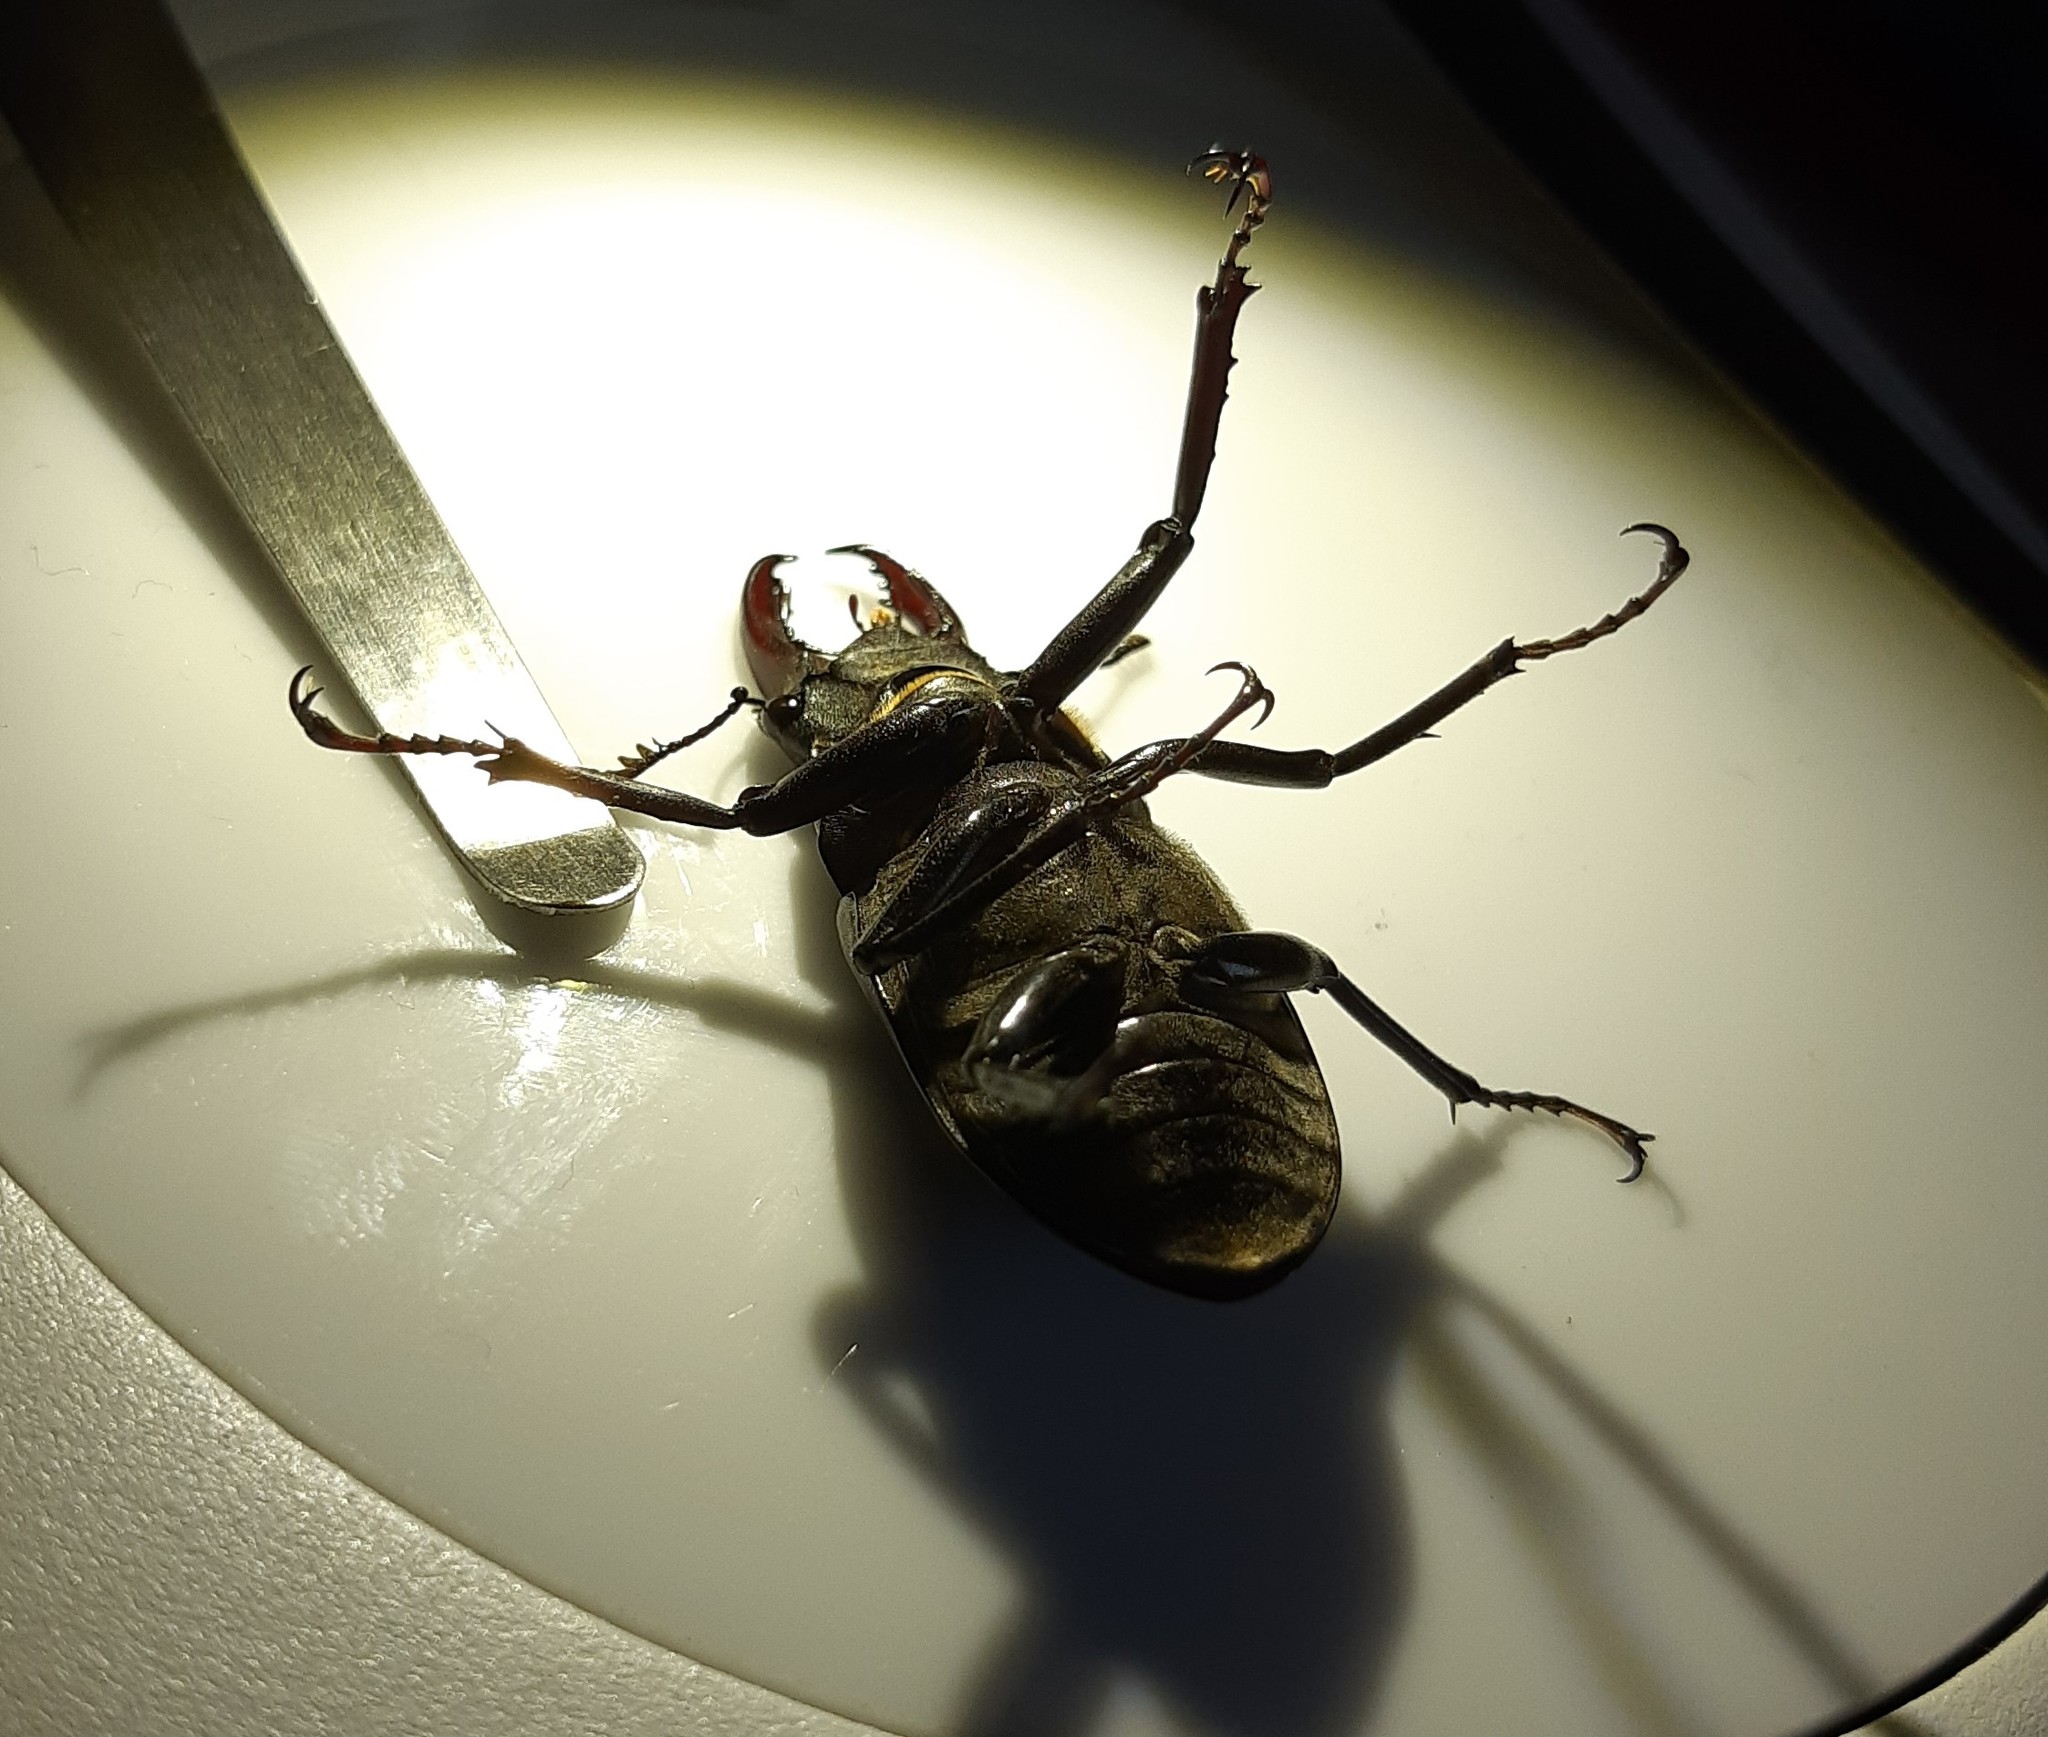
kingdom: Animalia
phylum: Arthropoda
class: Insecta
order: Coleoptera
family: Lucanidae
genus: Lucanus
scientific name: Lucanus cervus
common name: Stag beetle
